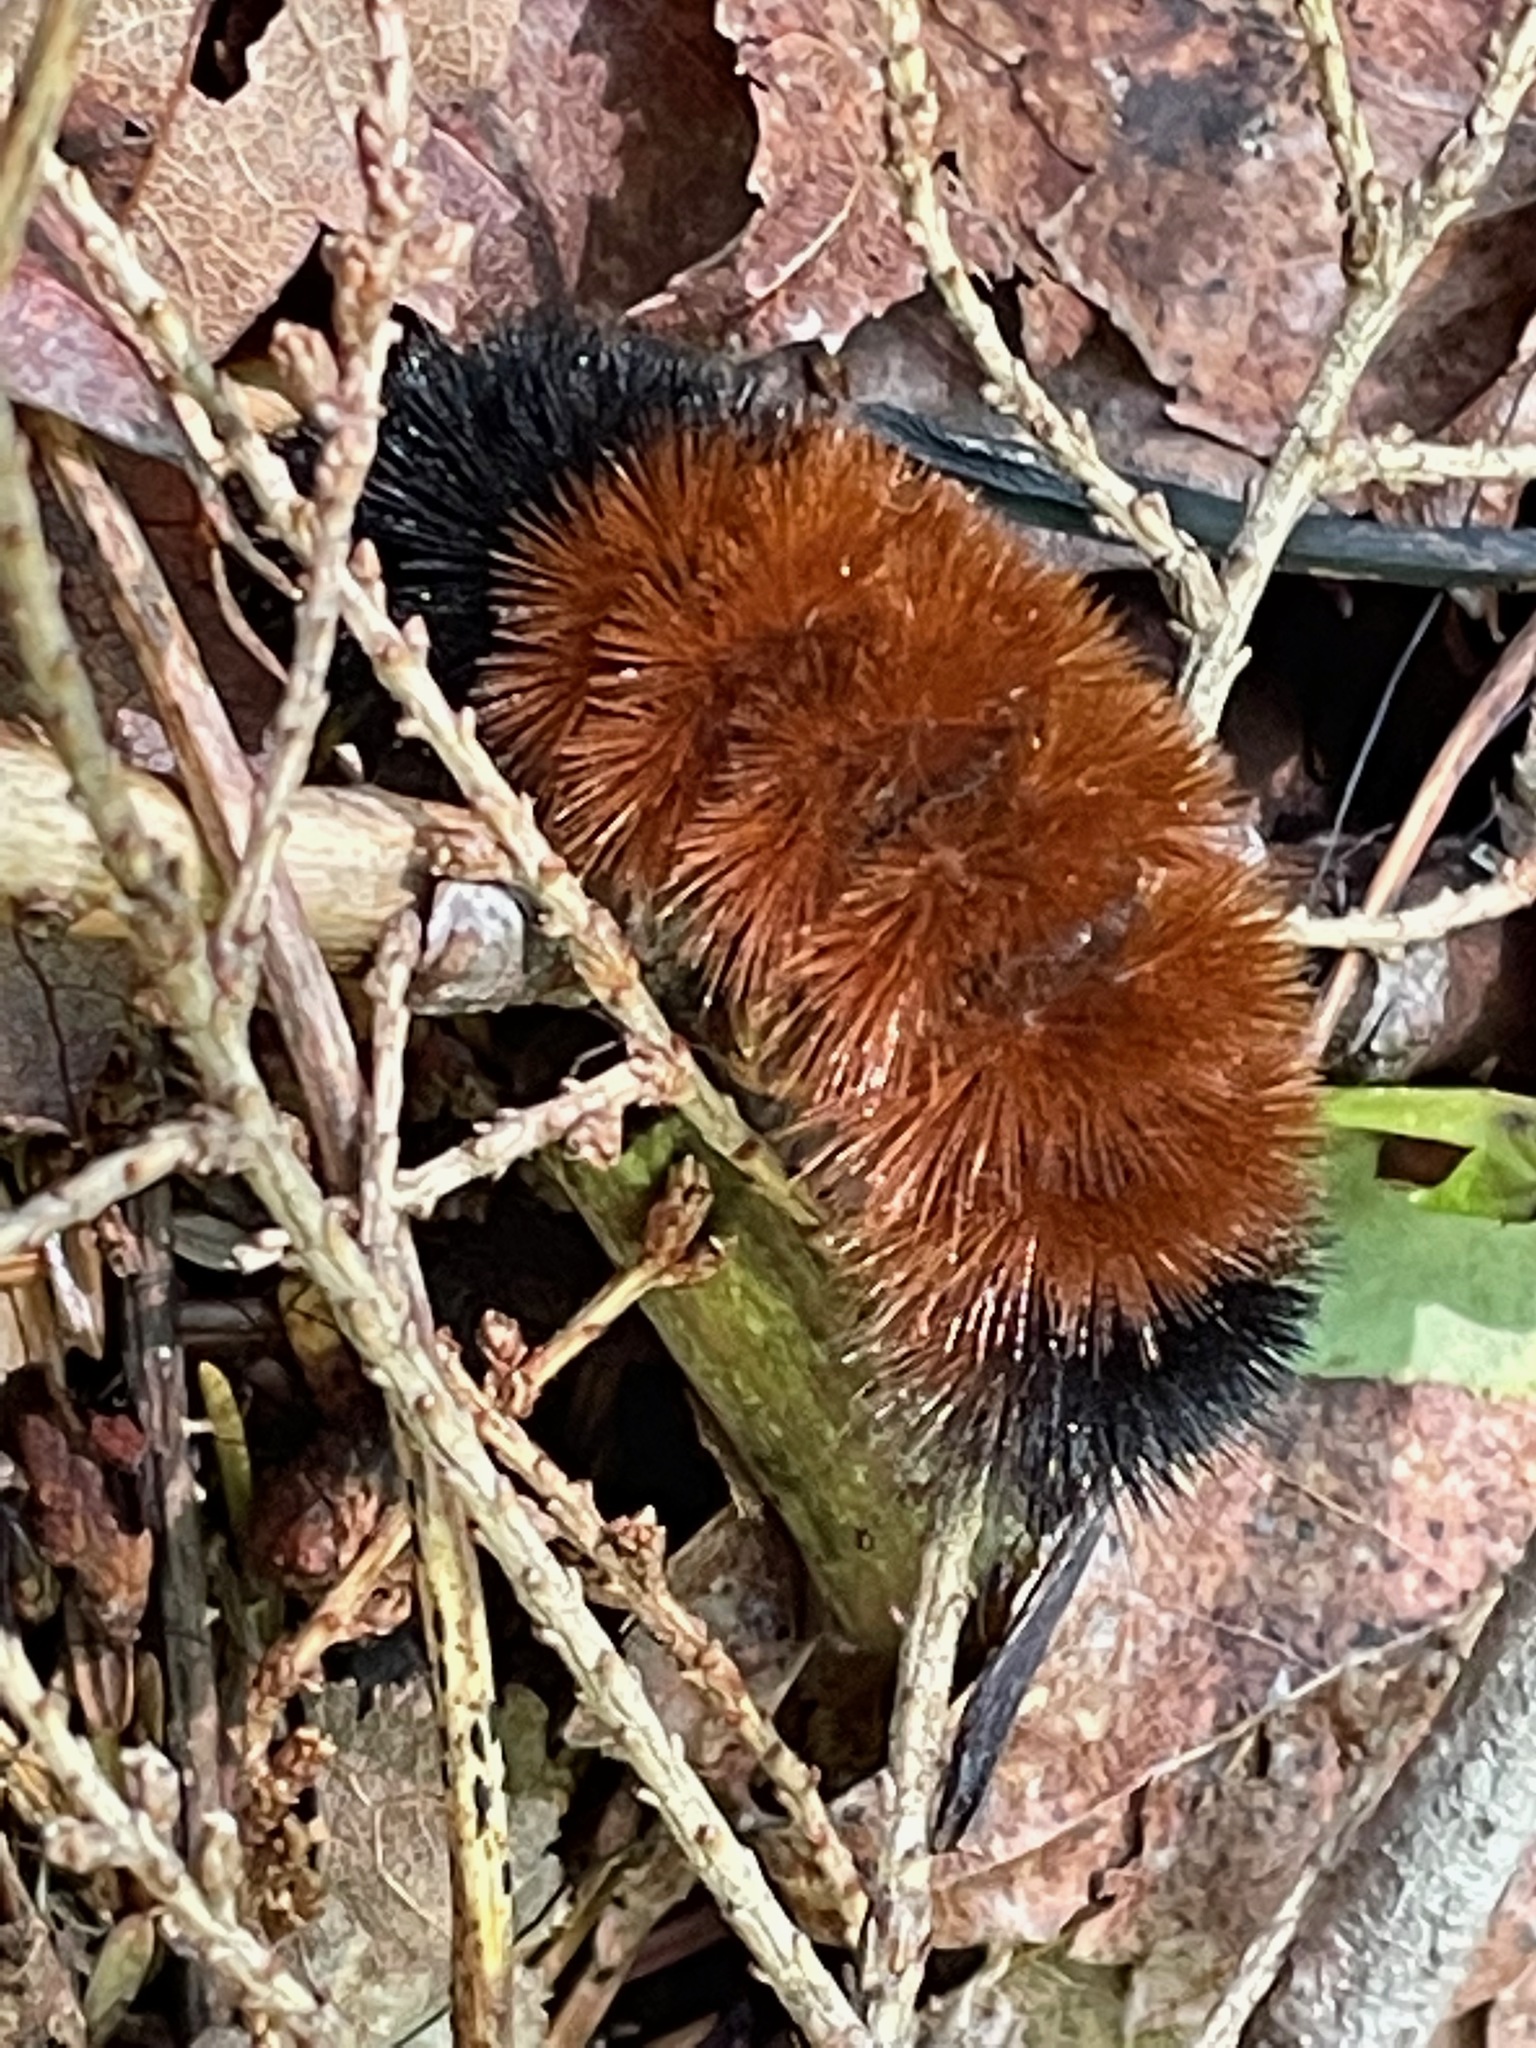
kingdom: Animalia
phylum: Arthropoda
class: Insecta
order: Lepidoptera
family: Erebidae
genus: Pyrrharctia
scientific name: Pyrrharctia isabella
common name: Isabella tiger moth
